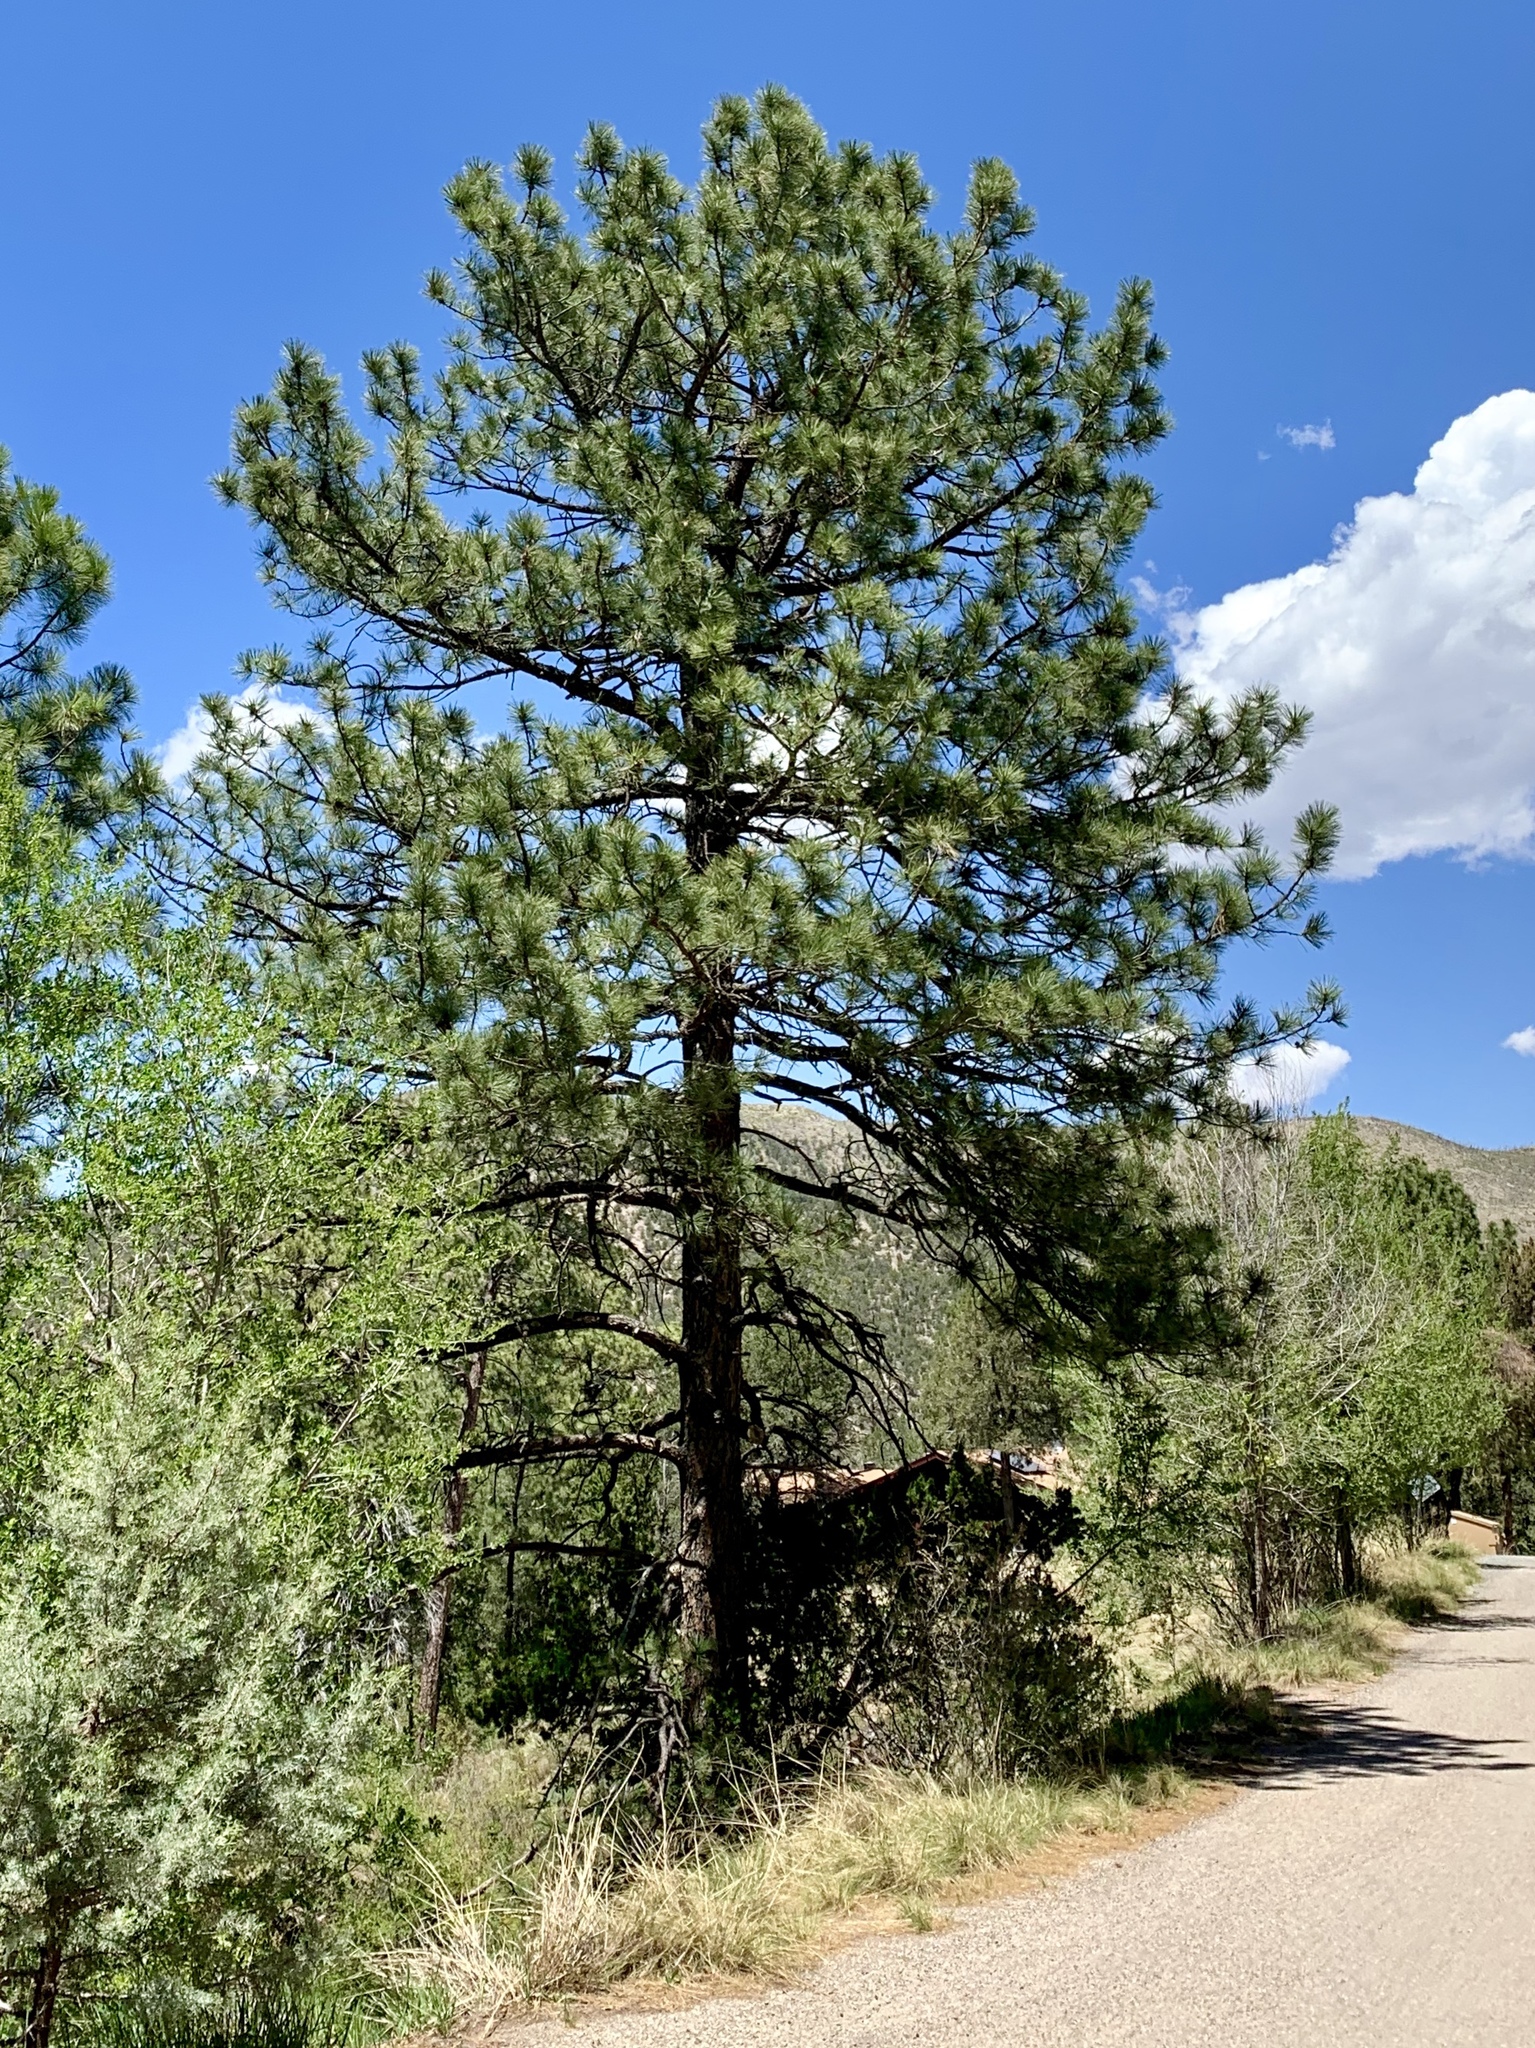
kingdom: Plantae
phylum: Tracheophyta
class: Pinopsida
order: Pinales
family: Pinaceae
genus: Pinus
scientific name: Pinus ponderosa
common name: Western yellow-pine
